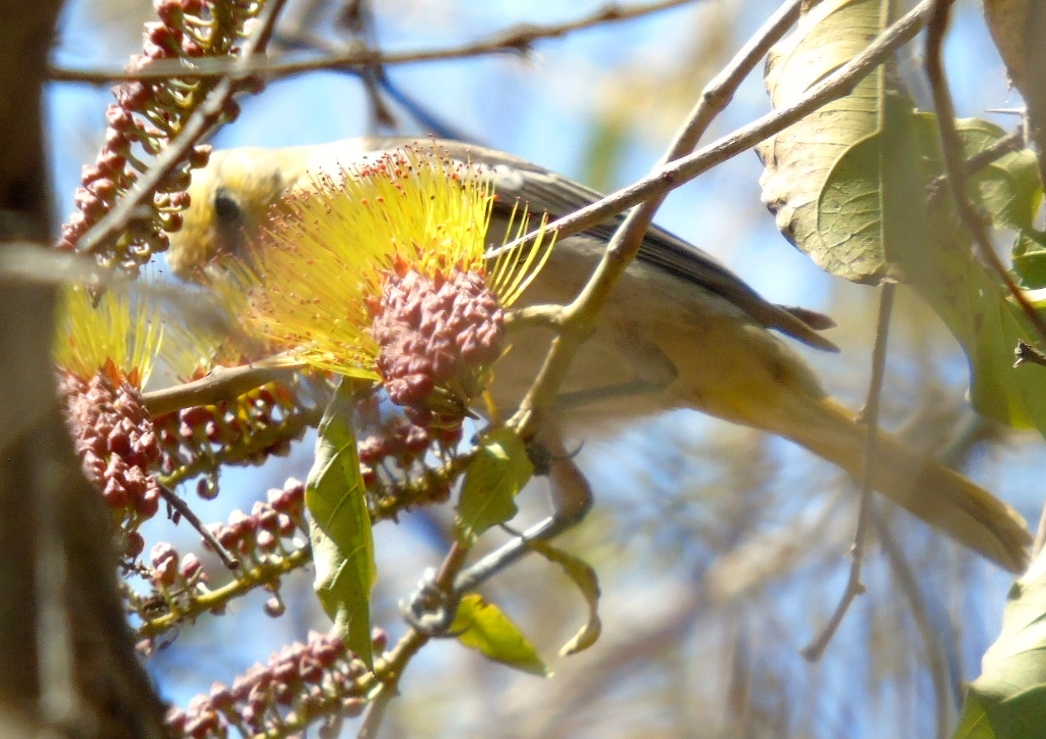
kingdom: Animalia
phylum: Chordata
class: Aves
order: Passeriformes
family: Icteridae
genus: Icterus
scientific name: Icterus bullockii
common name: Bullock's oriole
